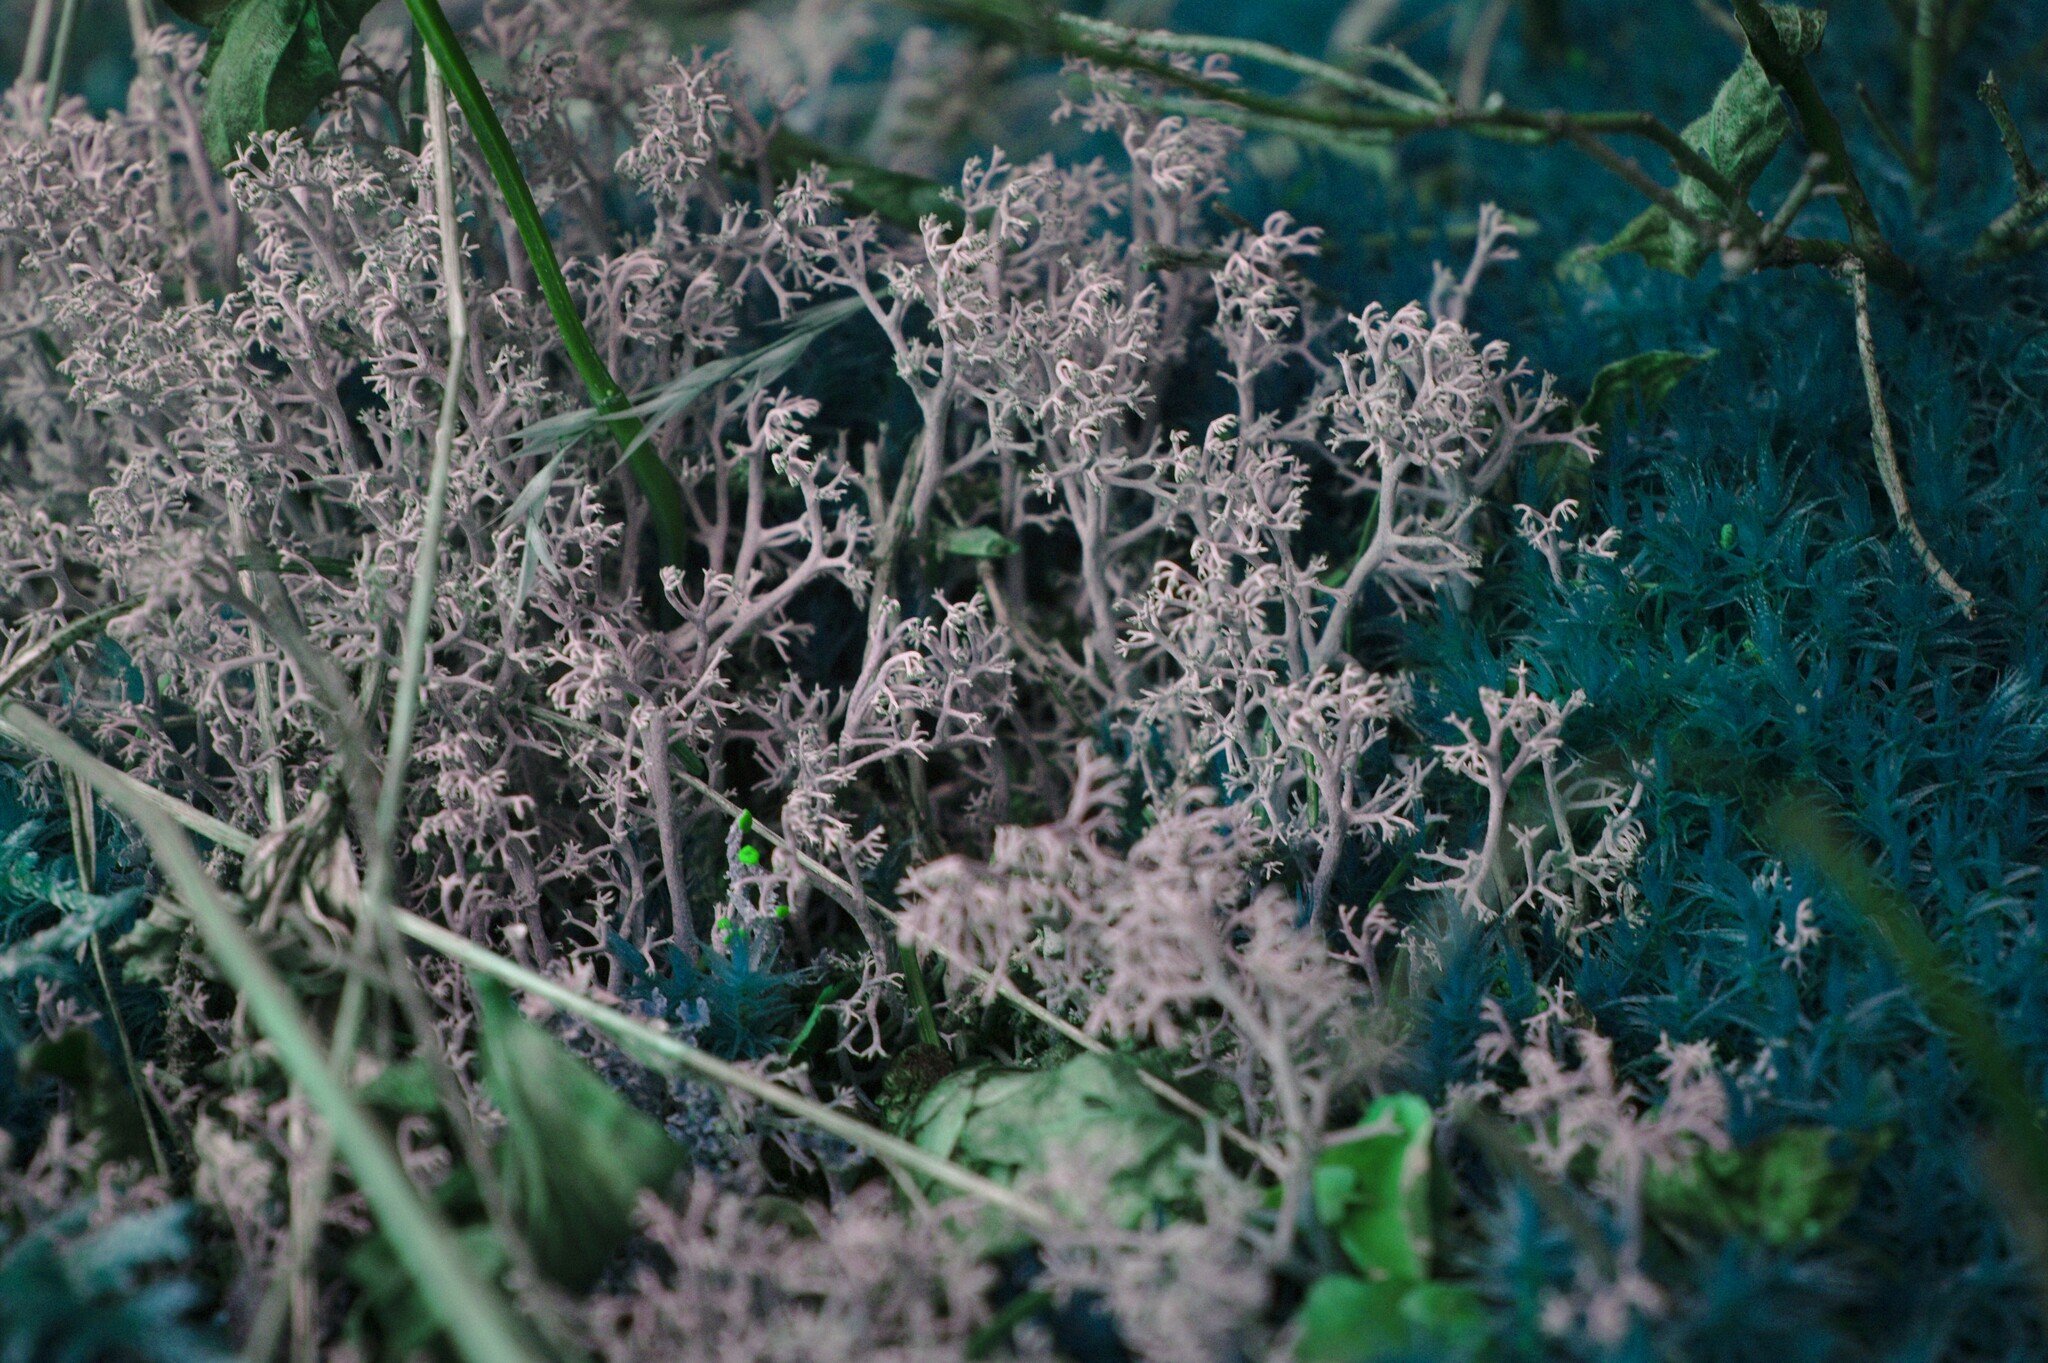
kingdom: Fungi
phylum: Ascomycota
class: Lecanoromycetes
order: Lecanorales
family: Cladoniaceae
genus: Cladonia
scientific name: Cladonia rangiferina
